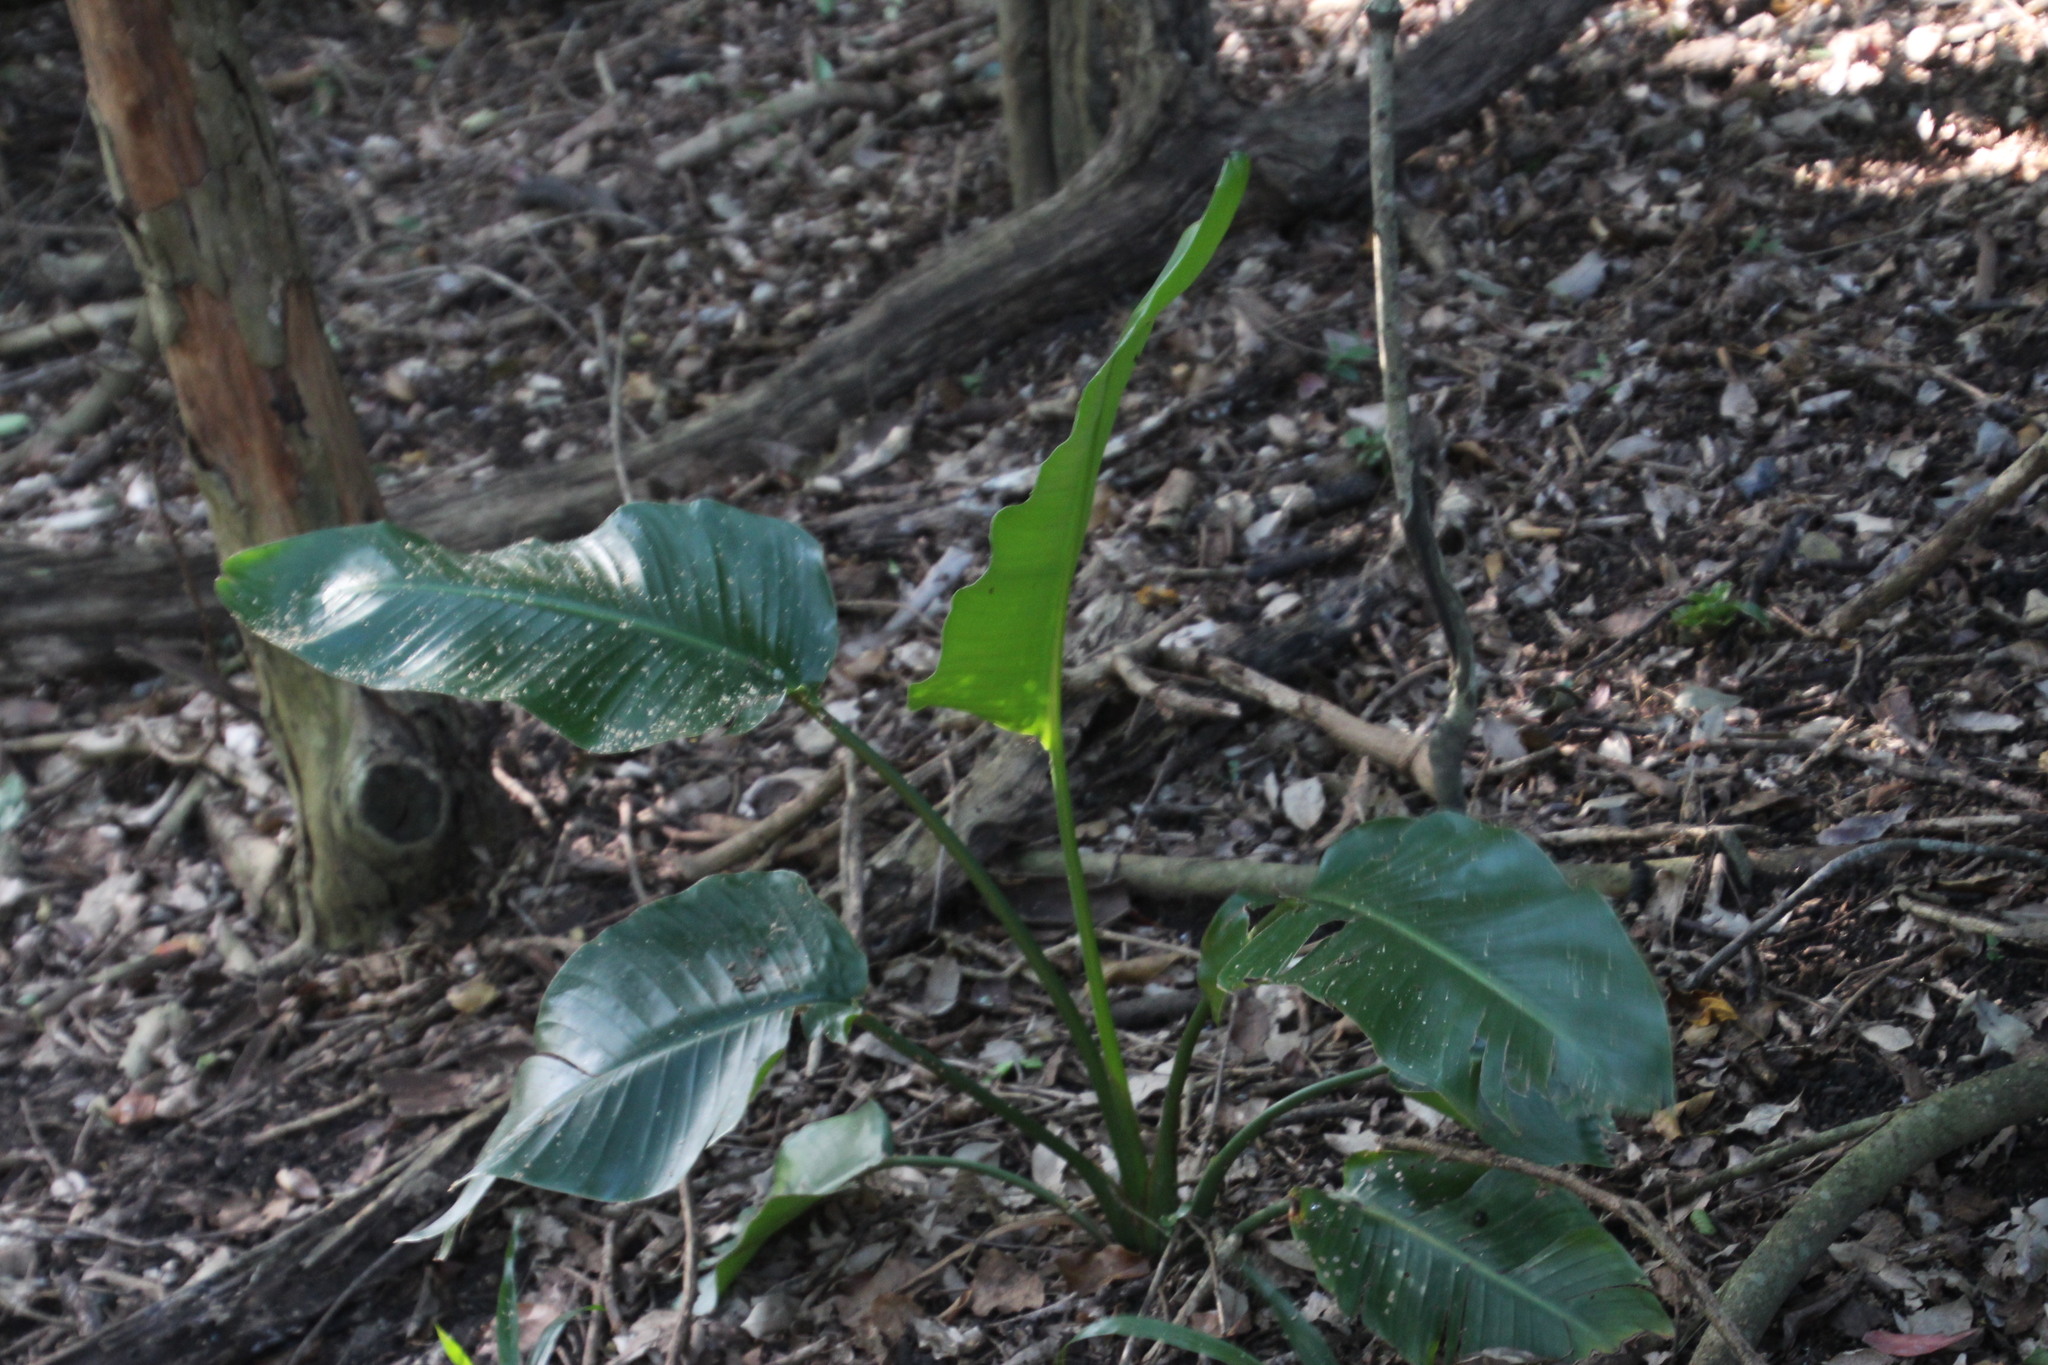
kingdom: Plantae
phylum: Tracheophyta
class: Liliopsida
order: Zingiberales
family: Strelitziaceae
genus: Strelitzia
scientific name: Strelitzia nicolai
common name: Bird-of-paradise tree
